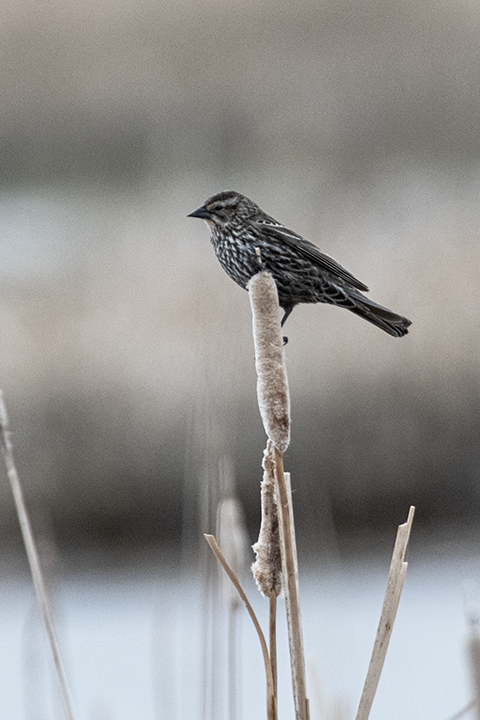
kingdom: Animalia
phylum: Chordata
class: Aves
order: Passeriformes
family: Icteridae
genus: Agelaius
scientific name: Agelaius phoeniceus
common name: Red-winged blackbird
